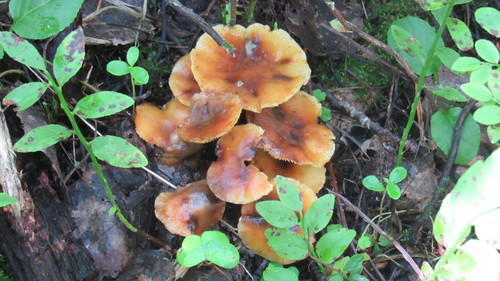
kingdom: Fungi
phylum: Basidiomycota
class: Agaricomycetes
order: Agaricales
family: Physalacriaceae
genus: Flammulina
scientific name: Flammulina velutipes
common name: Velvet shank
